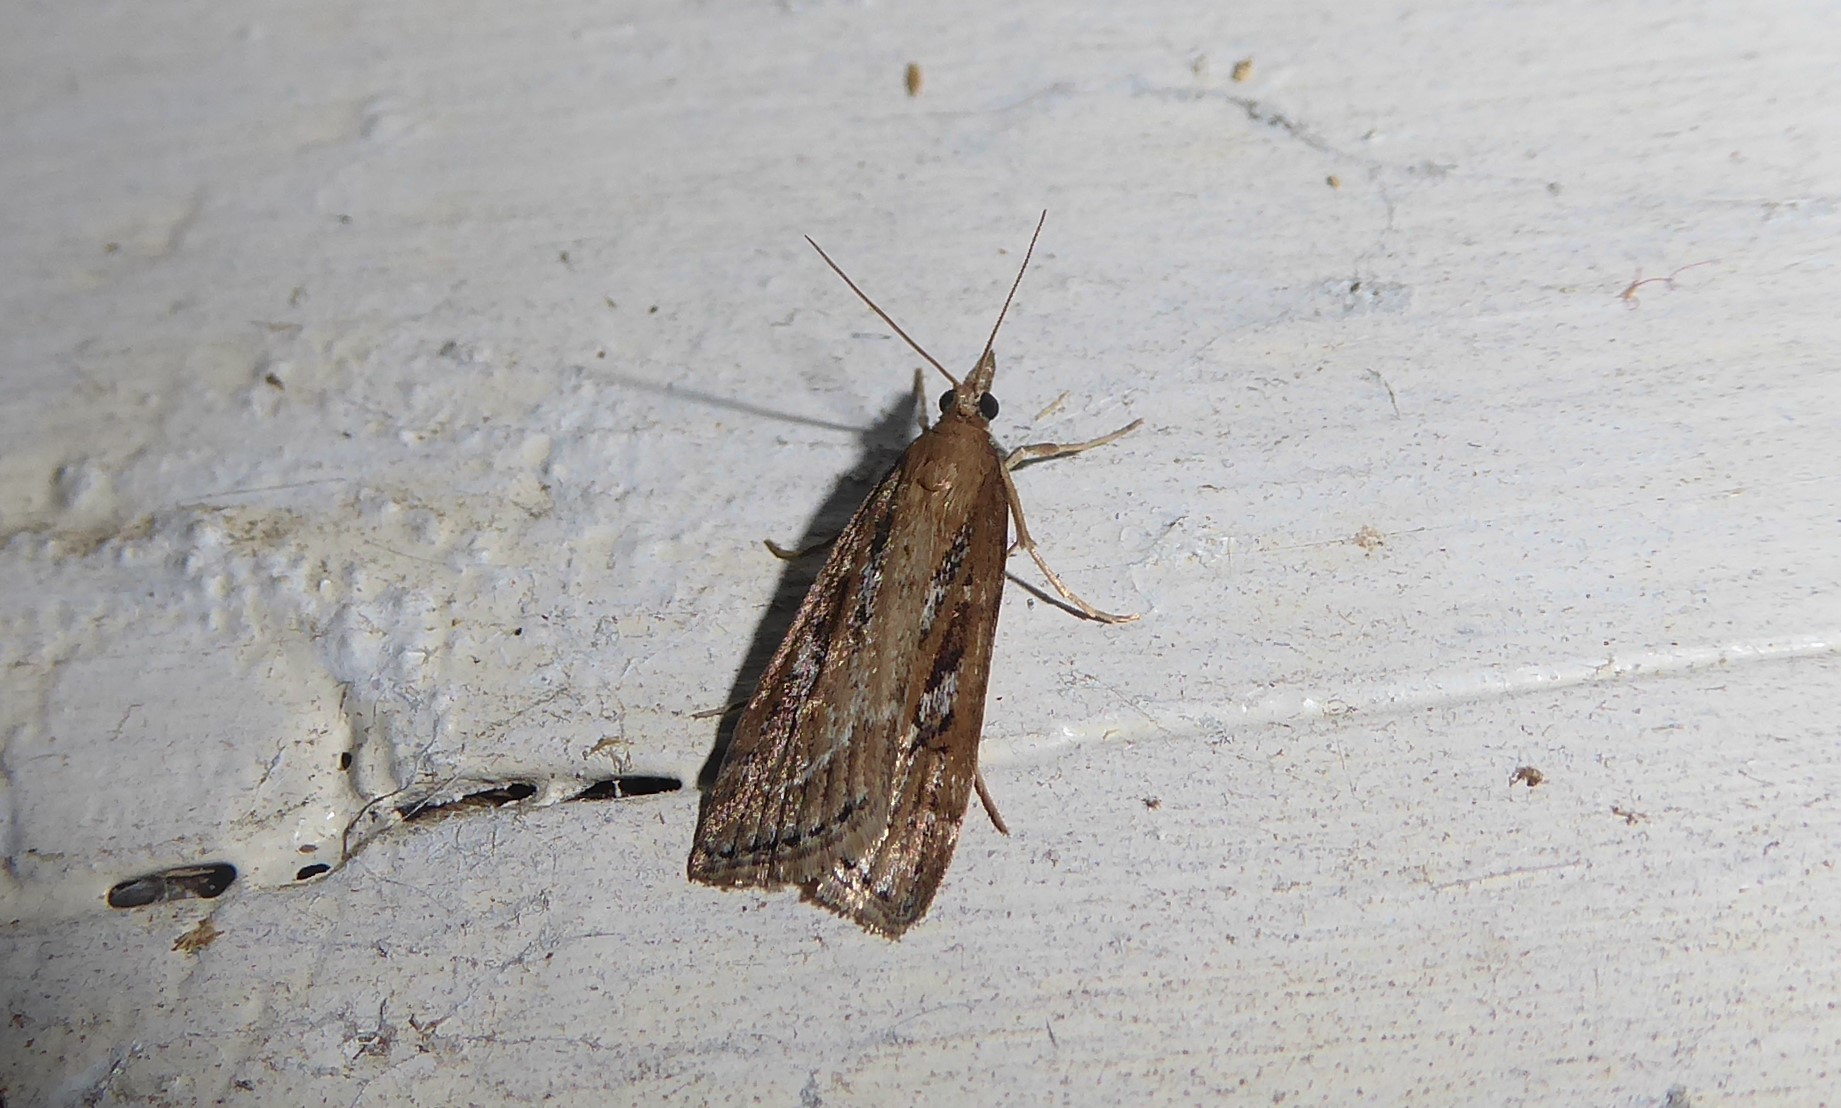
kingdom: Animalia
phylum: Arthropoda
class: Insecta
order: Lepidoptera
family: Crambidae
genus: Eudonia
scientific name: Eudonia octophora
